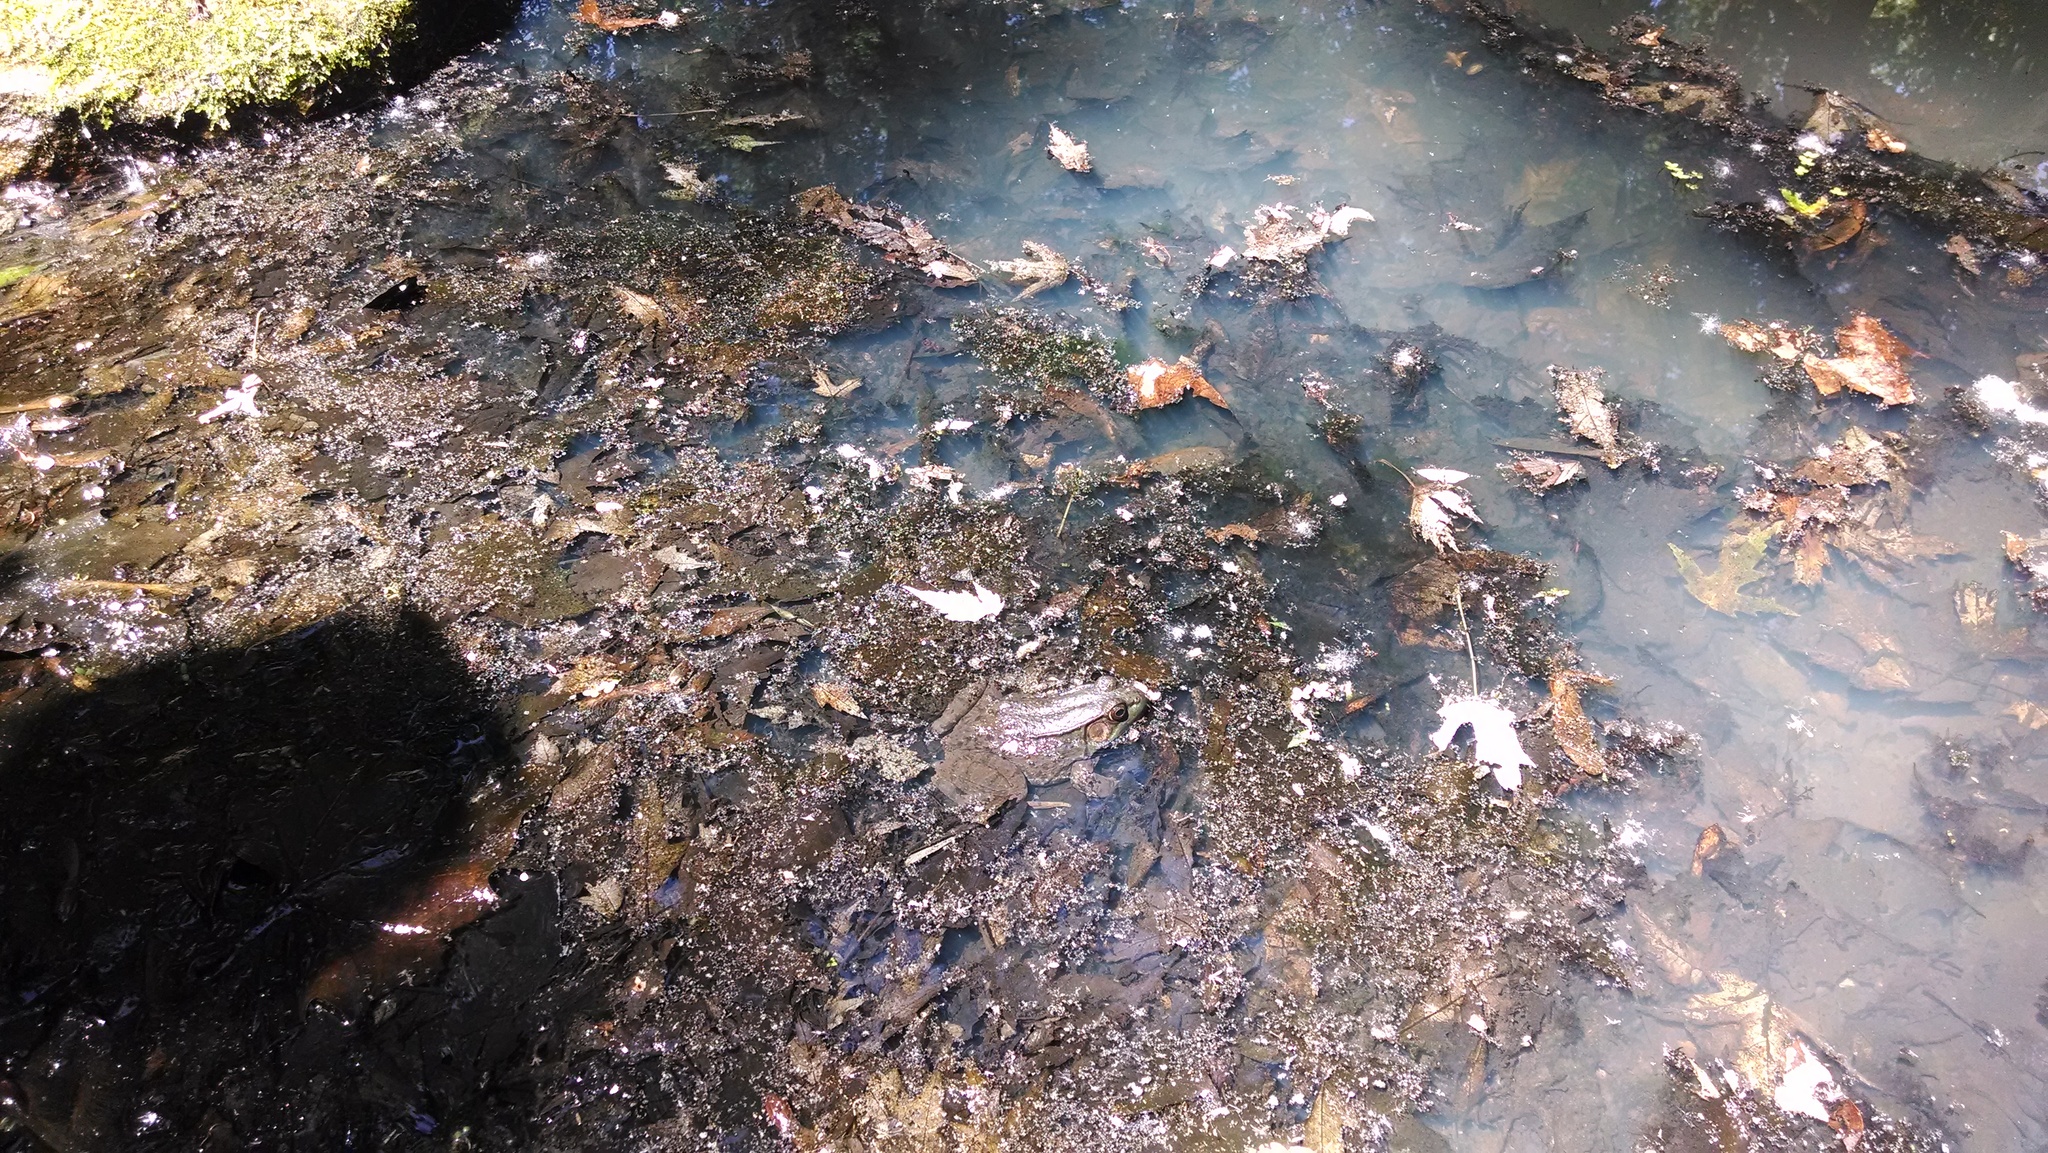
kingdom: Animalia
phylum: Chordata
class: Amphibia
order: Anura
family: Ranidae
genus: Lithobates
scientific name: Lithobates clamitans
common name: Green frog
